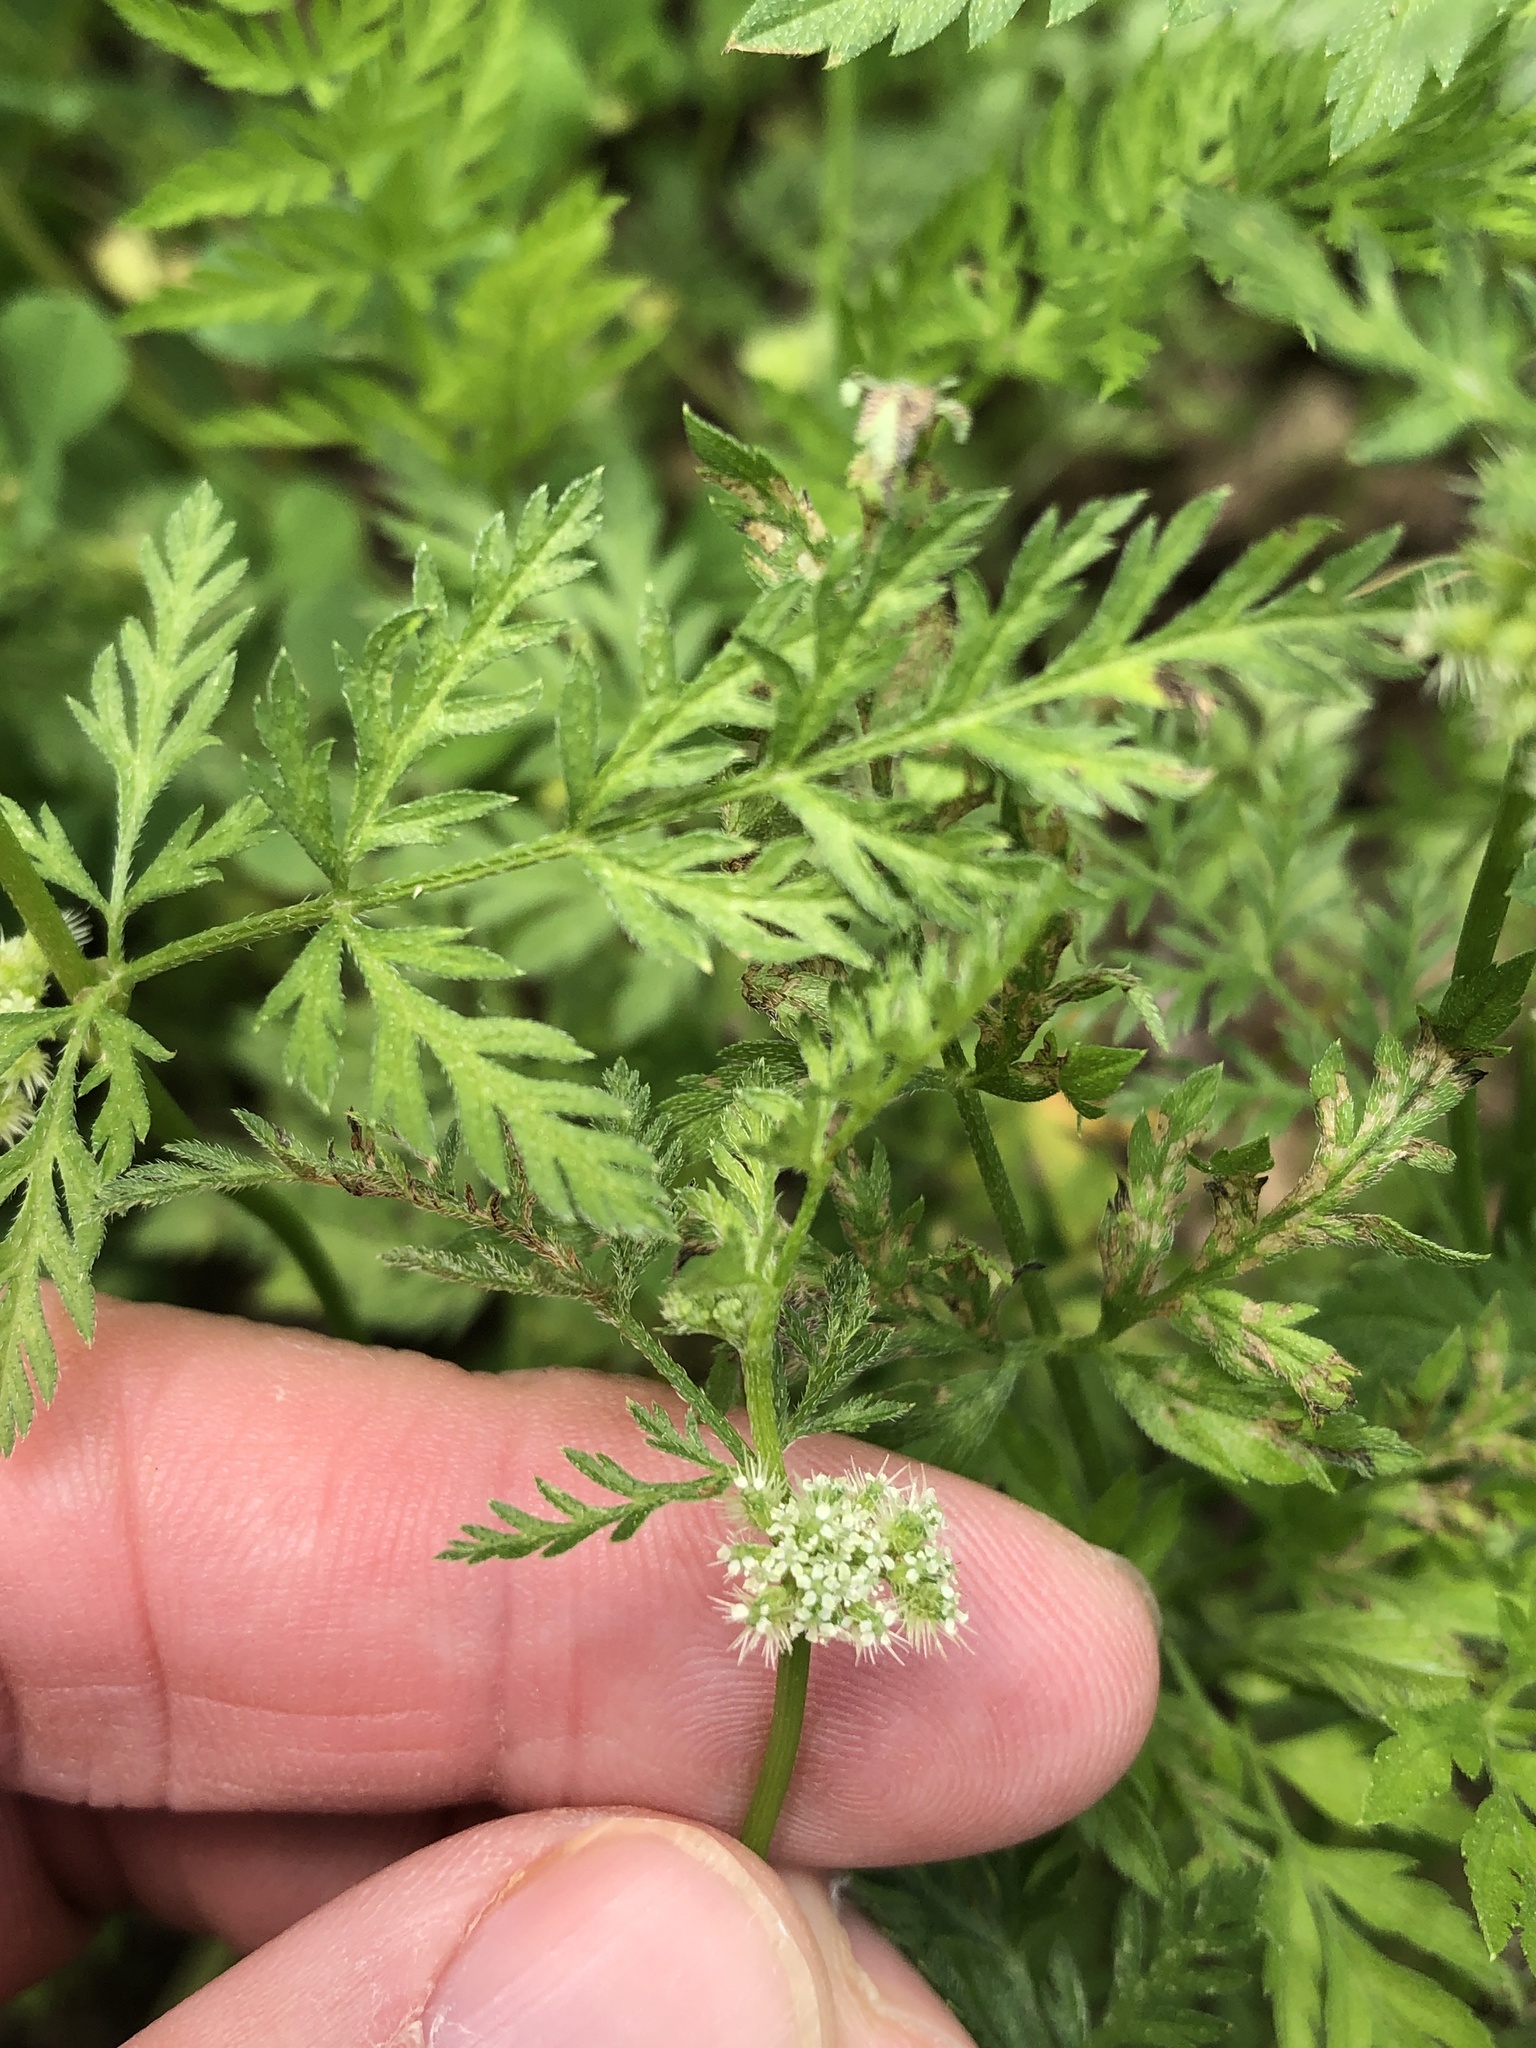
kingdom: Plantae
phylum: Tracheophyta
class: Magnoliopsida
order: Apiales
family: Apiaceae
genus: Torilis
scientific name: Torilis nodosa
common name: Knotted hedge-parsley
